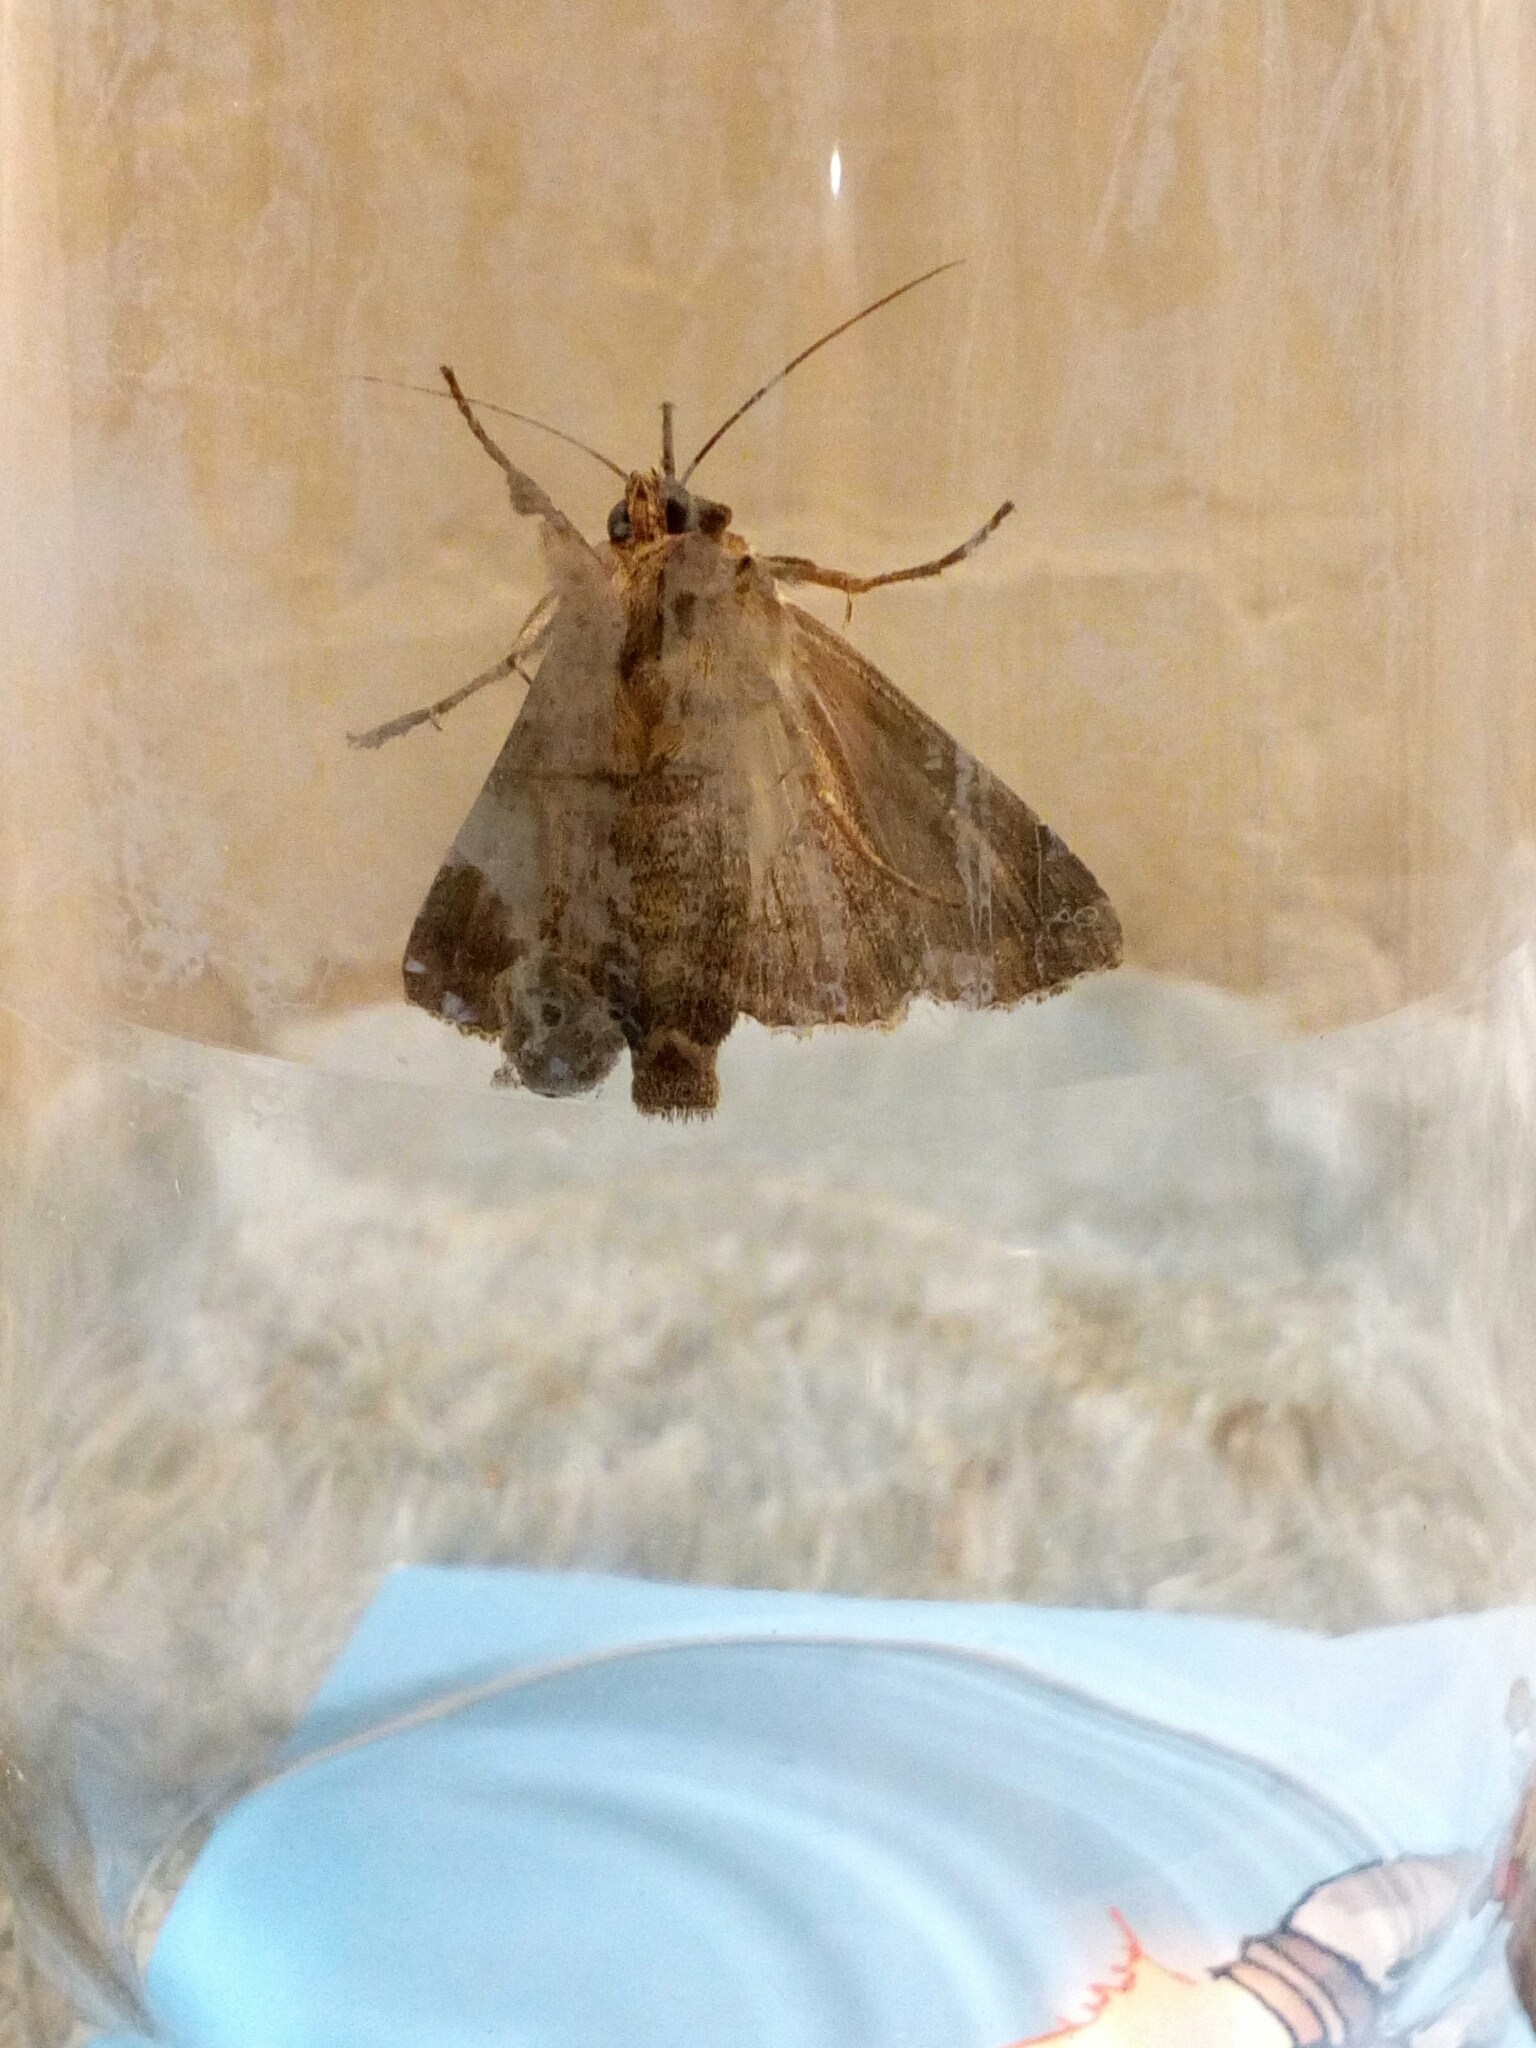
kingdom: Animalia
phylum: Arthropoda
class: Insecta
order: Lepidoptera
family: Noctuidae
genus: Apamea
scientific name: Apamea monoglypha
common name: Dark arches
